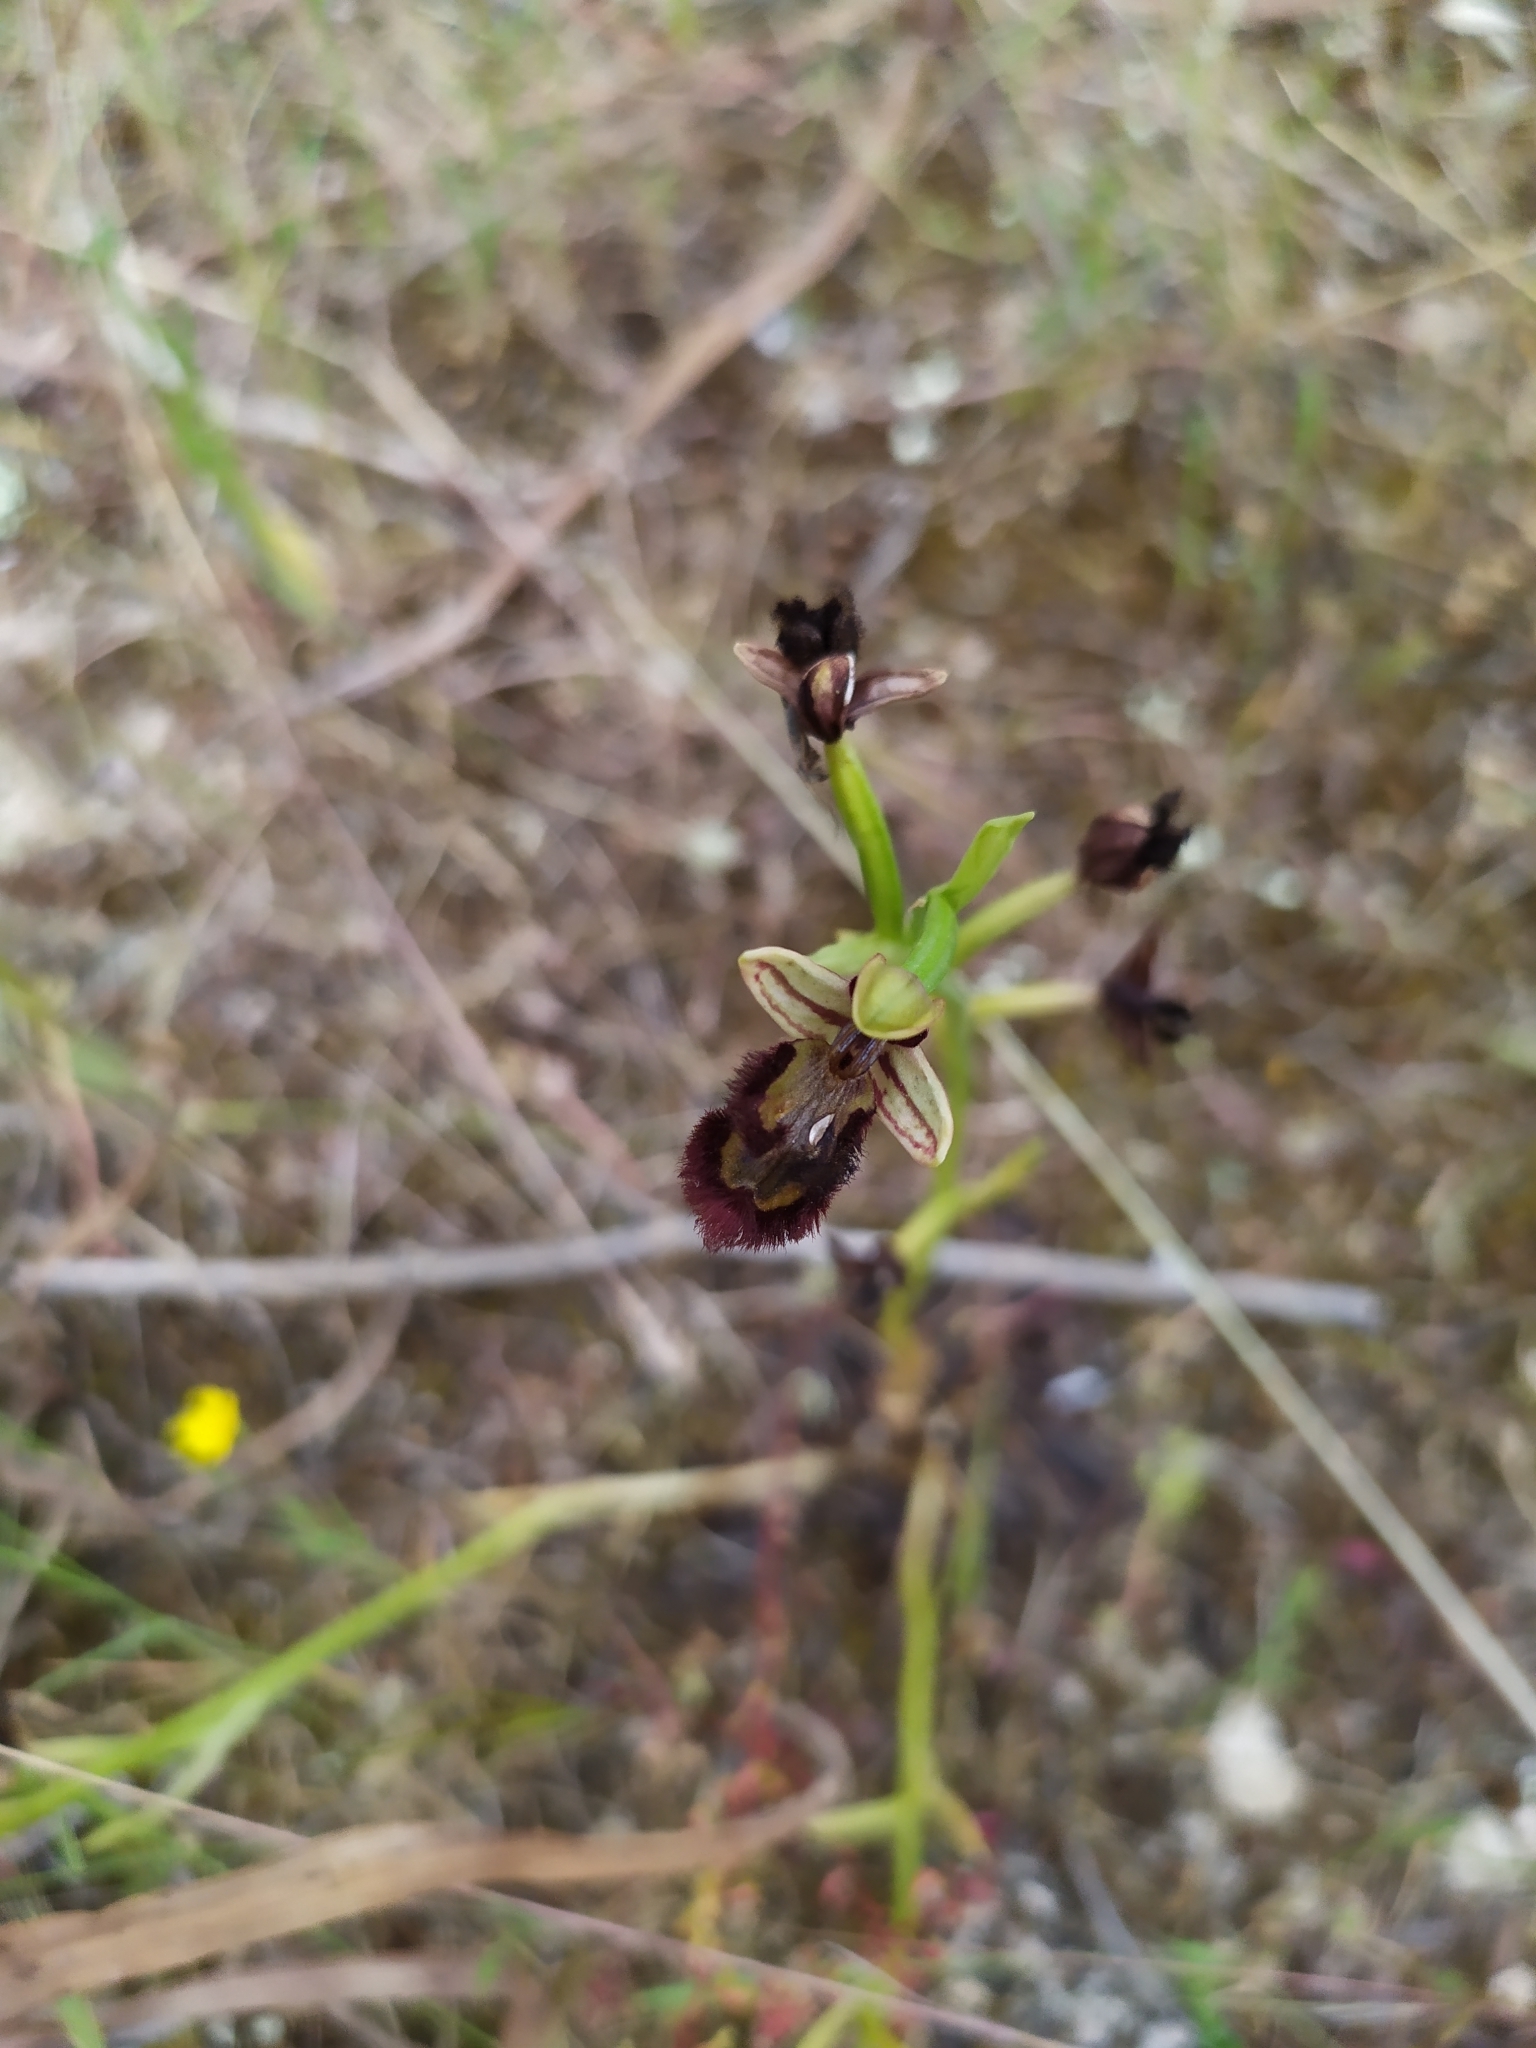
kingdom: Plantae
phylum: Tracheophyta
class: Liliopsida
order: Asparagales
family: Orchidaceae
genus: Ophrys
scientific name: Ophrys speculum
